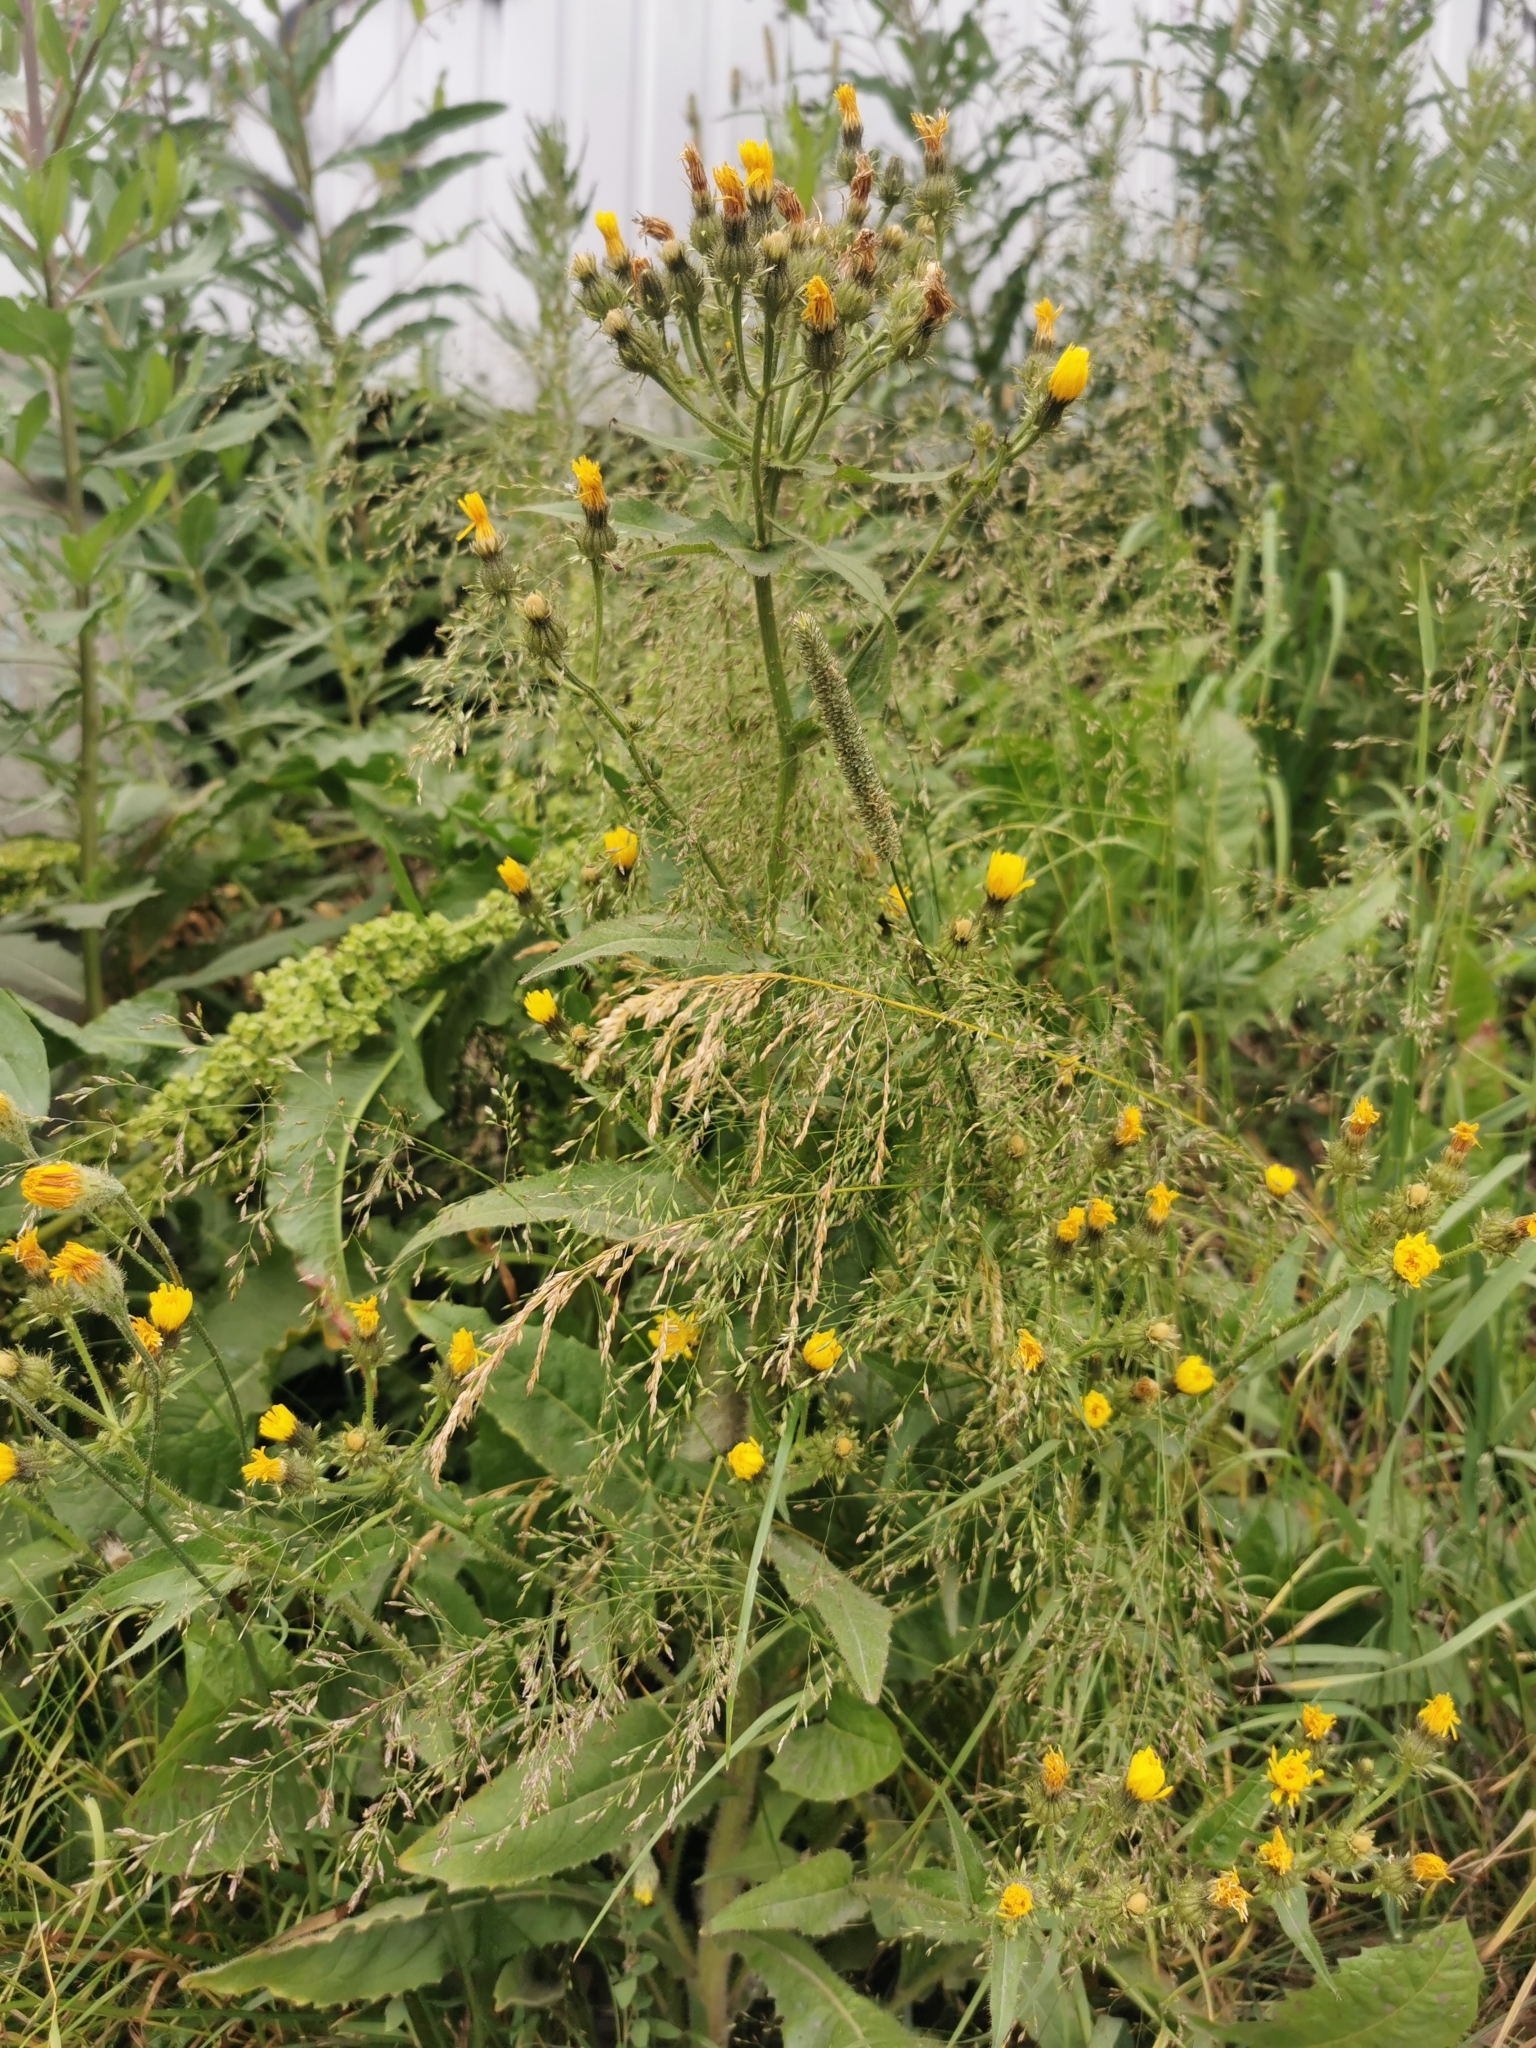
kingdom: Plantae
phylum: Tracheophyta
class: Magnoliopsida
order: Asterales
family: Asteraceae
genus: Picris
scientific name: Picris japonica
